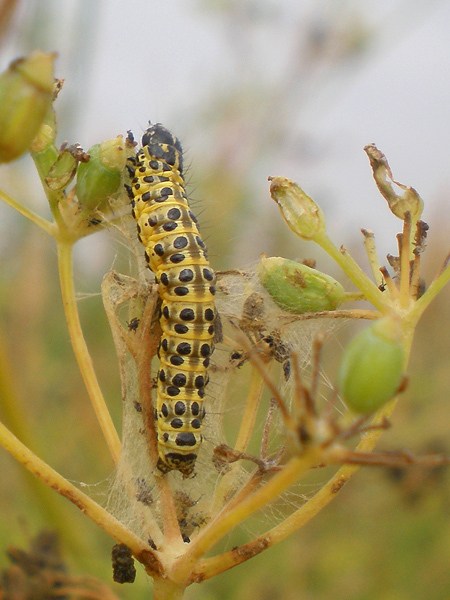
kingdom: Animalia
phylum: Arthropoda
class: Insecta
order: Lepidoptera
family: Crambidae
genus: Sitochroa
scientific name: Sitochroa palealis
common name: Greenish-yellow sitochroa moth
